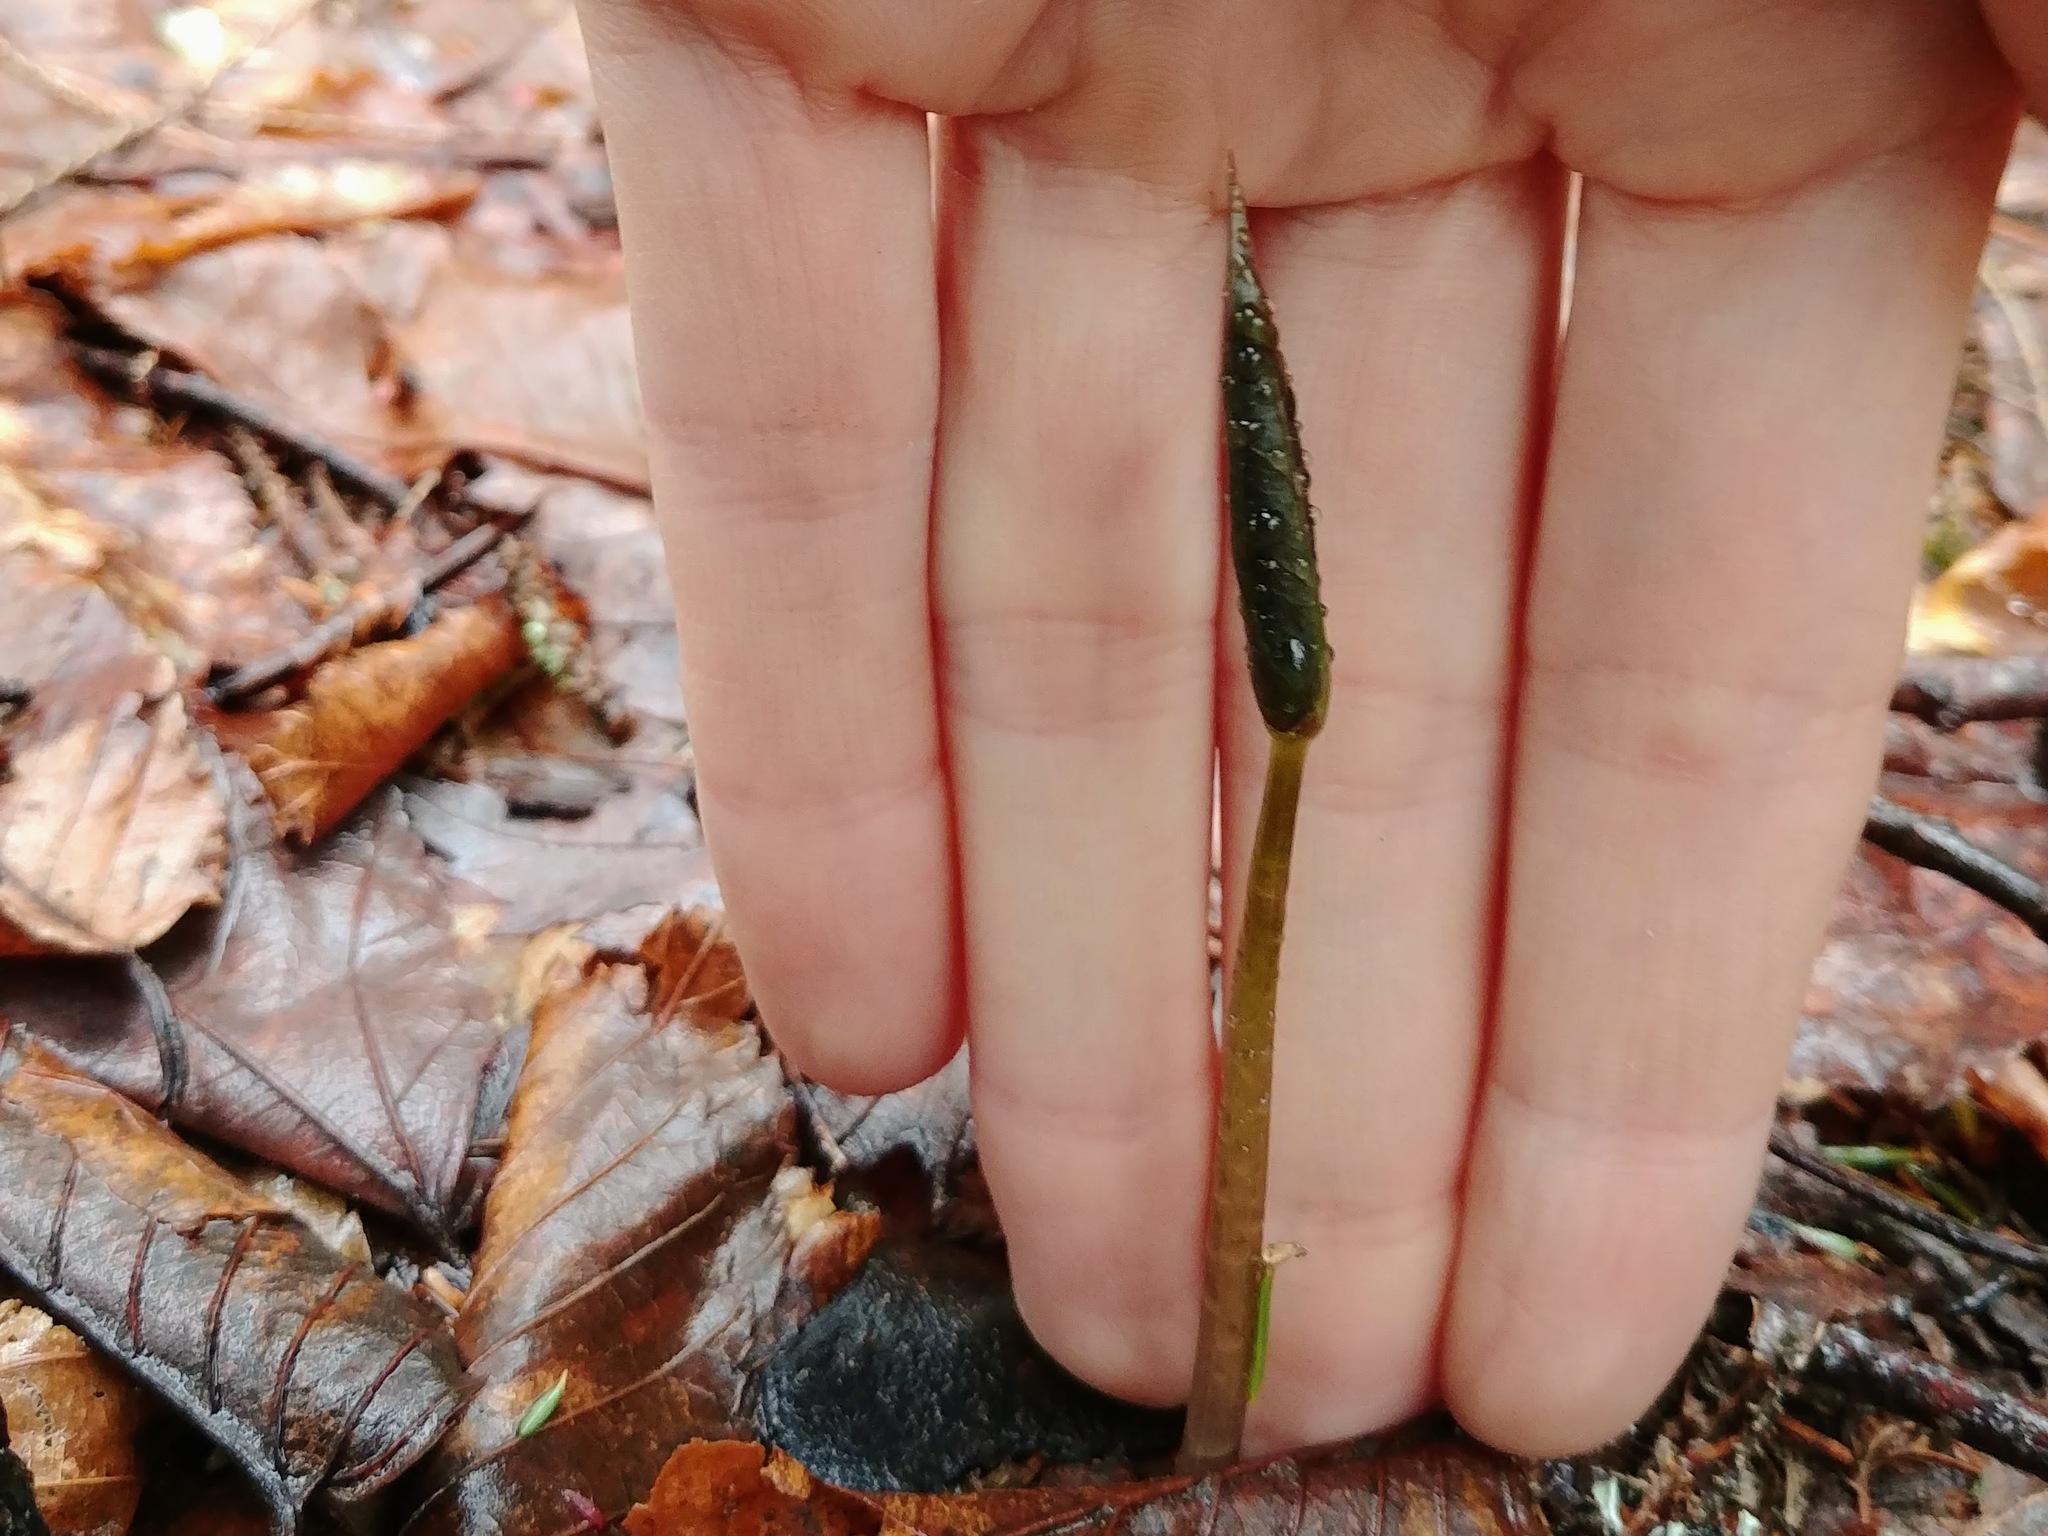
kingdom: Plantae
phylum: Tracheophyta
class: Liliopsida
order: Liliales
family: Melanthiaceae
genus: Trillium
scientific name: Trillium undulatum
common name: Paint trillium
